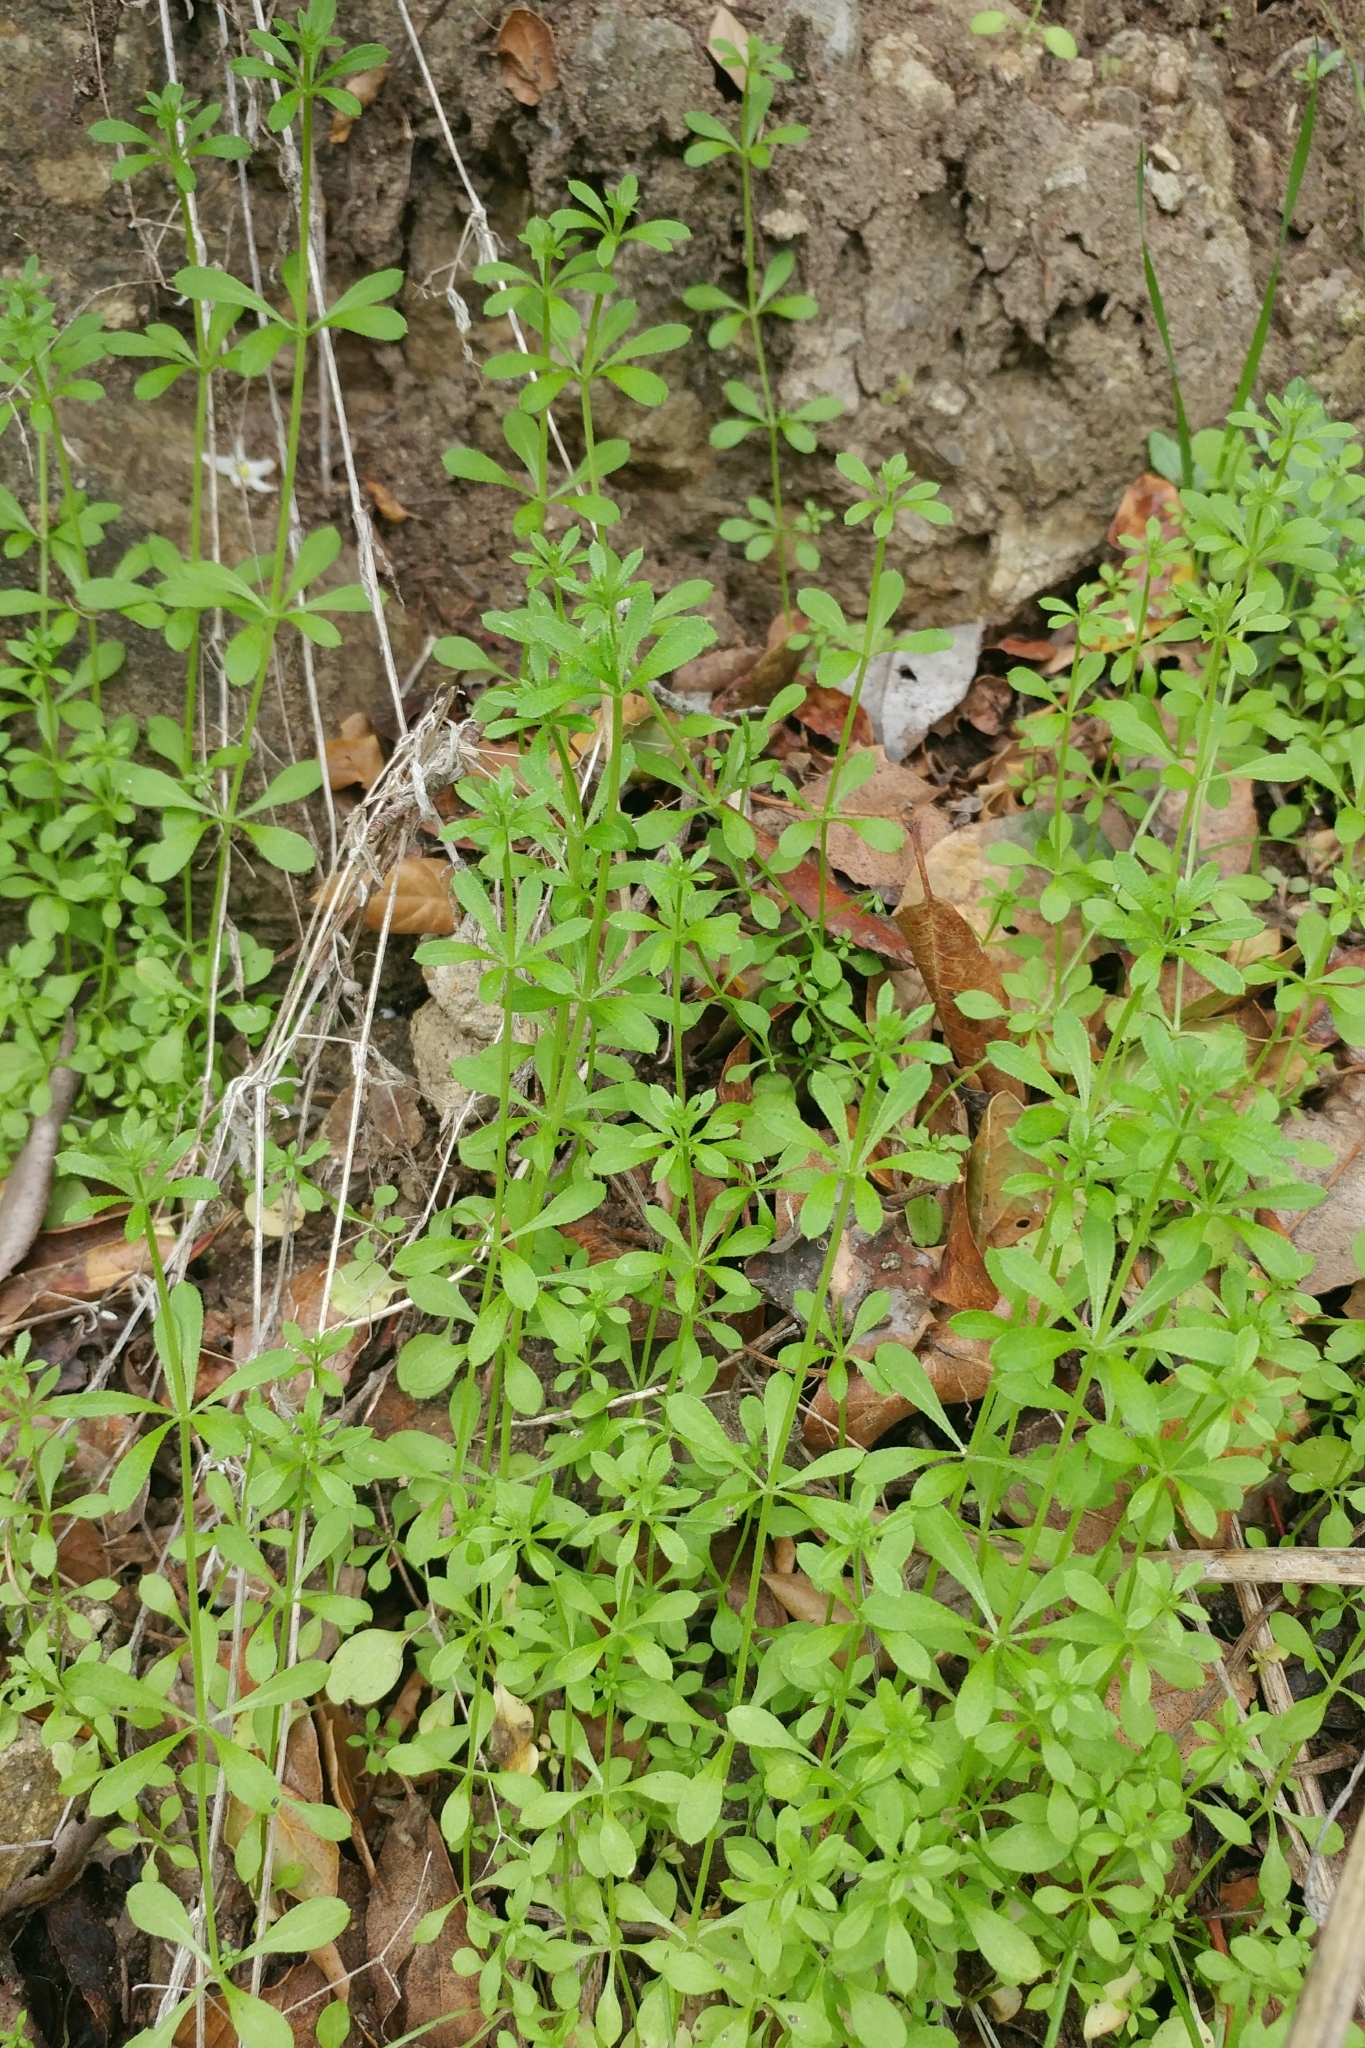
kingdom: Plantae
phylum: Tracheophyta
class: Magnoliopsida
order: Gentianales
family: Rubiaceae
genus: Galium
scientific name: Galium aparine
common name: Cleavers
